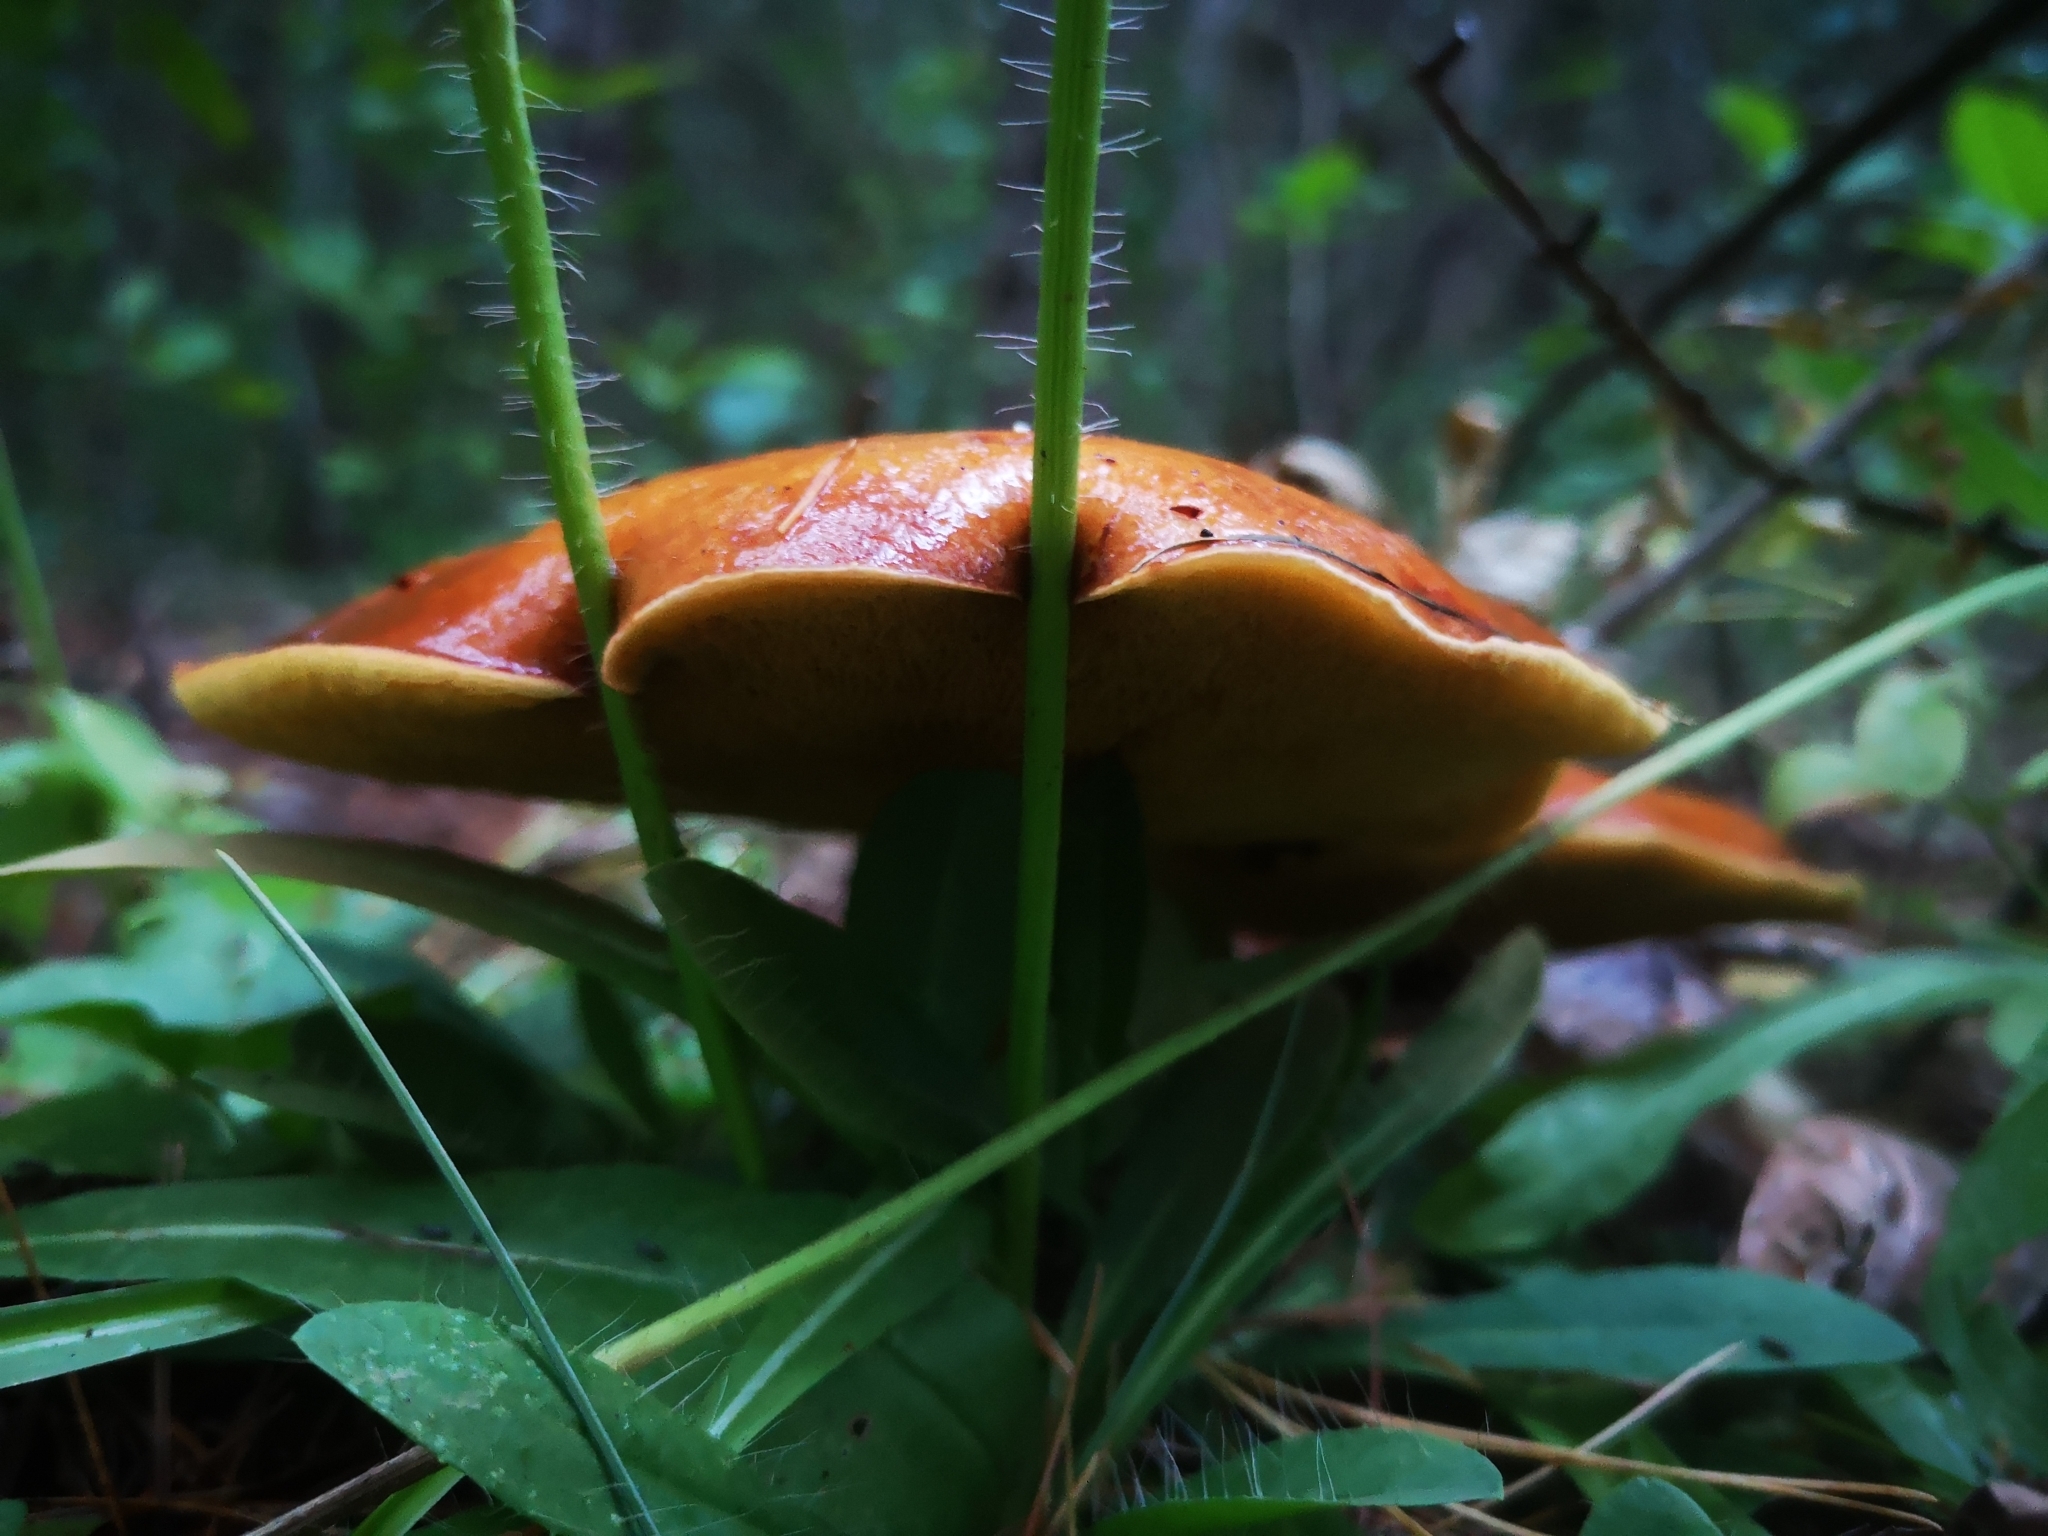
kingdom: Fungi
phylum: Basidiomycota
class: Agaricomycetes
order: Boletales
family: Suillaceae
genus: Suillus
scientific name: Suillus grevillei
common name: Larch bolete
